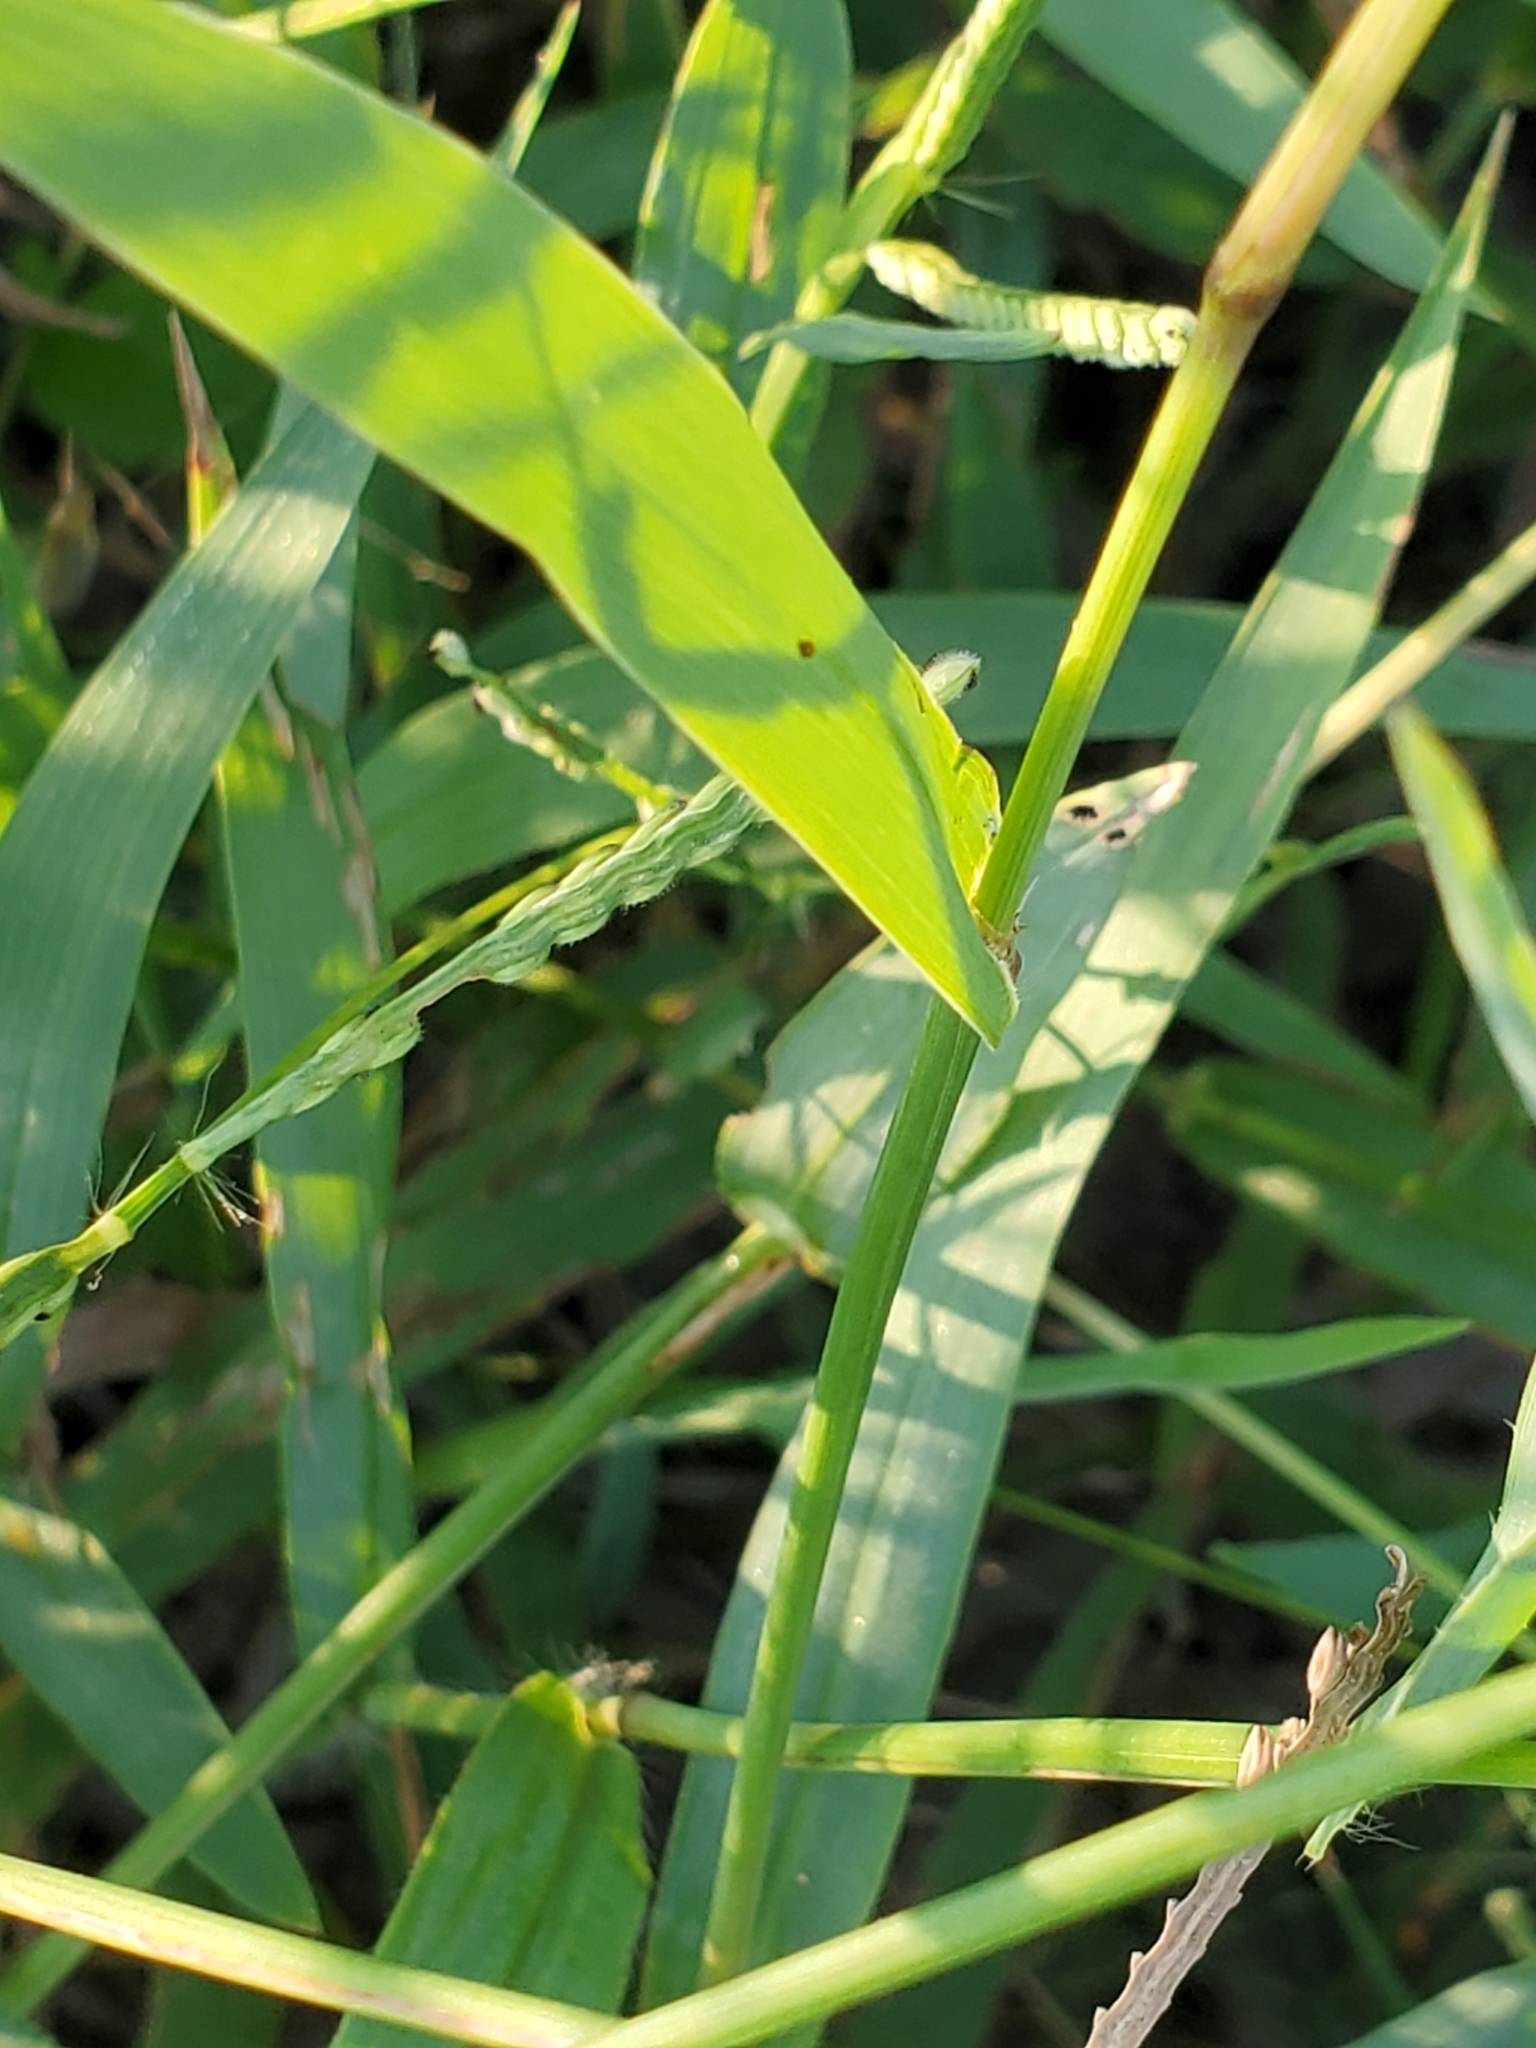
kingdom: Plantae
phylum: Tracheophyta
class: Liliopsida
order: Poales
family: Poaceae
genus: Paspalum
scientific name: Paspalum pubiflorum
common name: Hairy-seed paspalum
